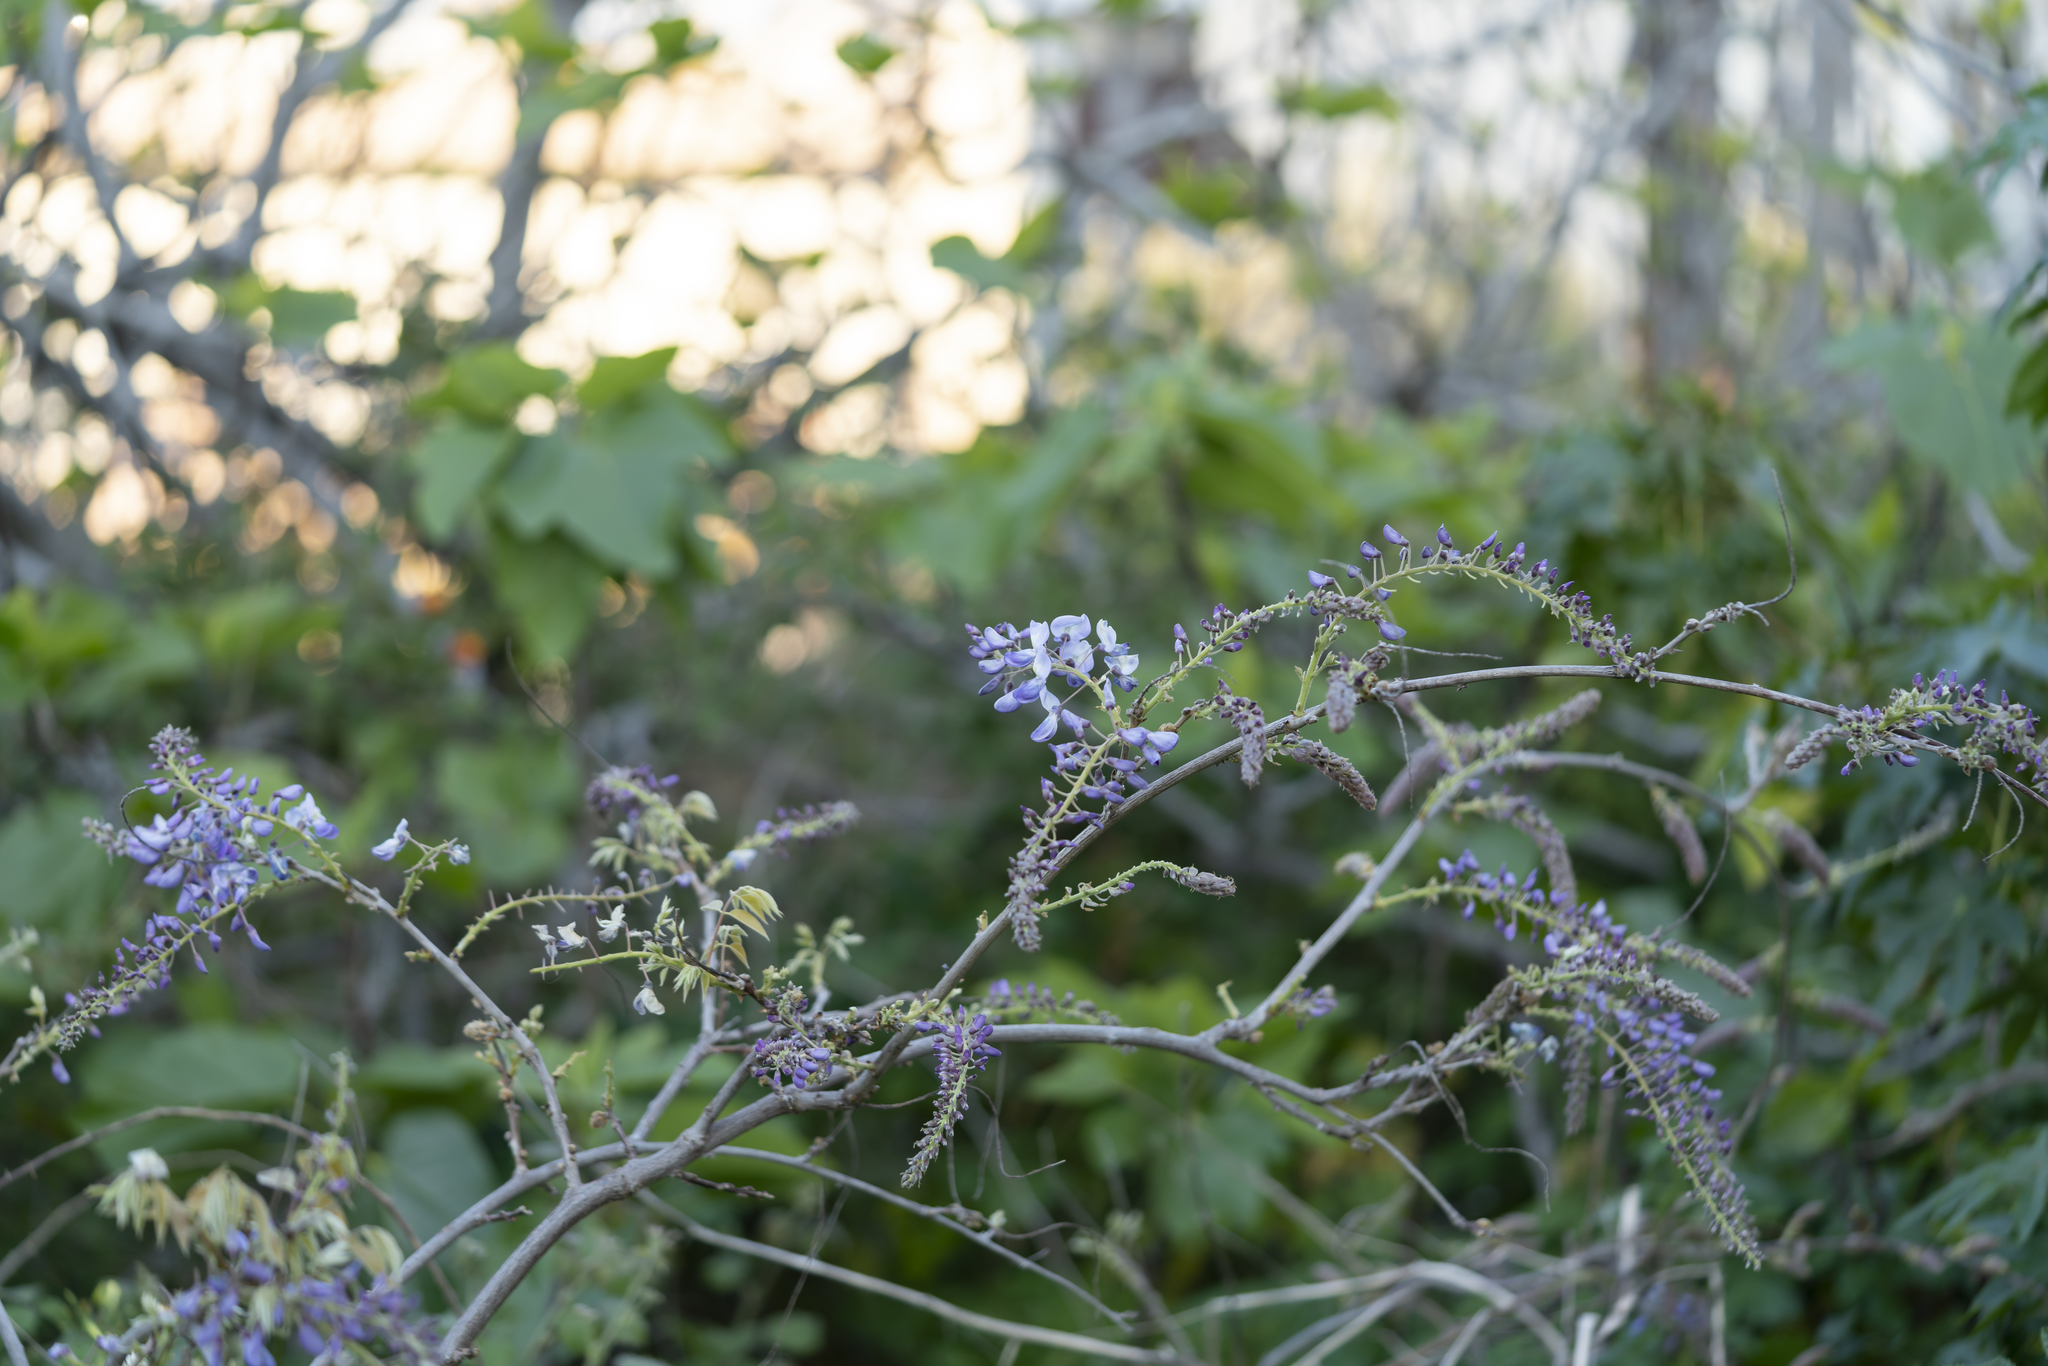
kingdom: Plantae
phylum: Tracheophyta
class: Magnoliopsida
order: Fabales
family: Fabaceae
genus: Wisteria
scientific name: Wisteria sinensis
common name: Chinese wisteria
